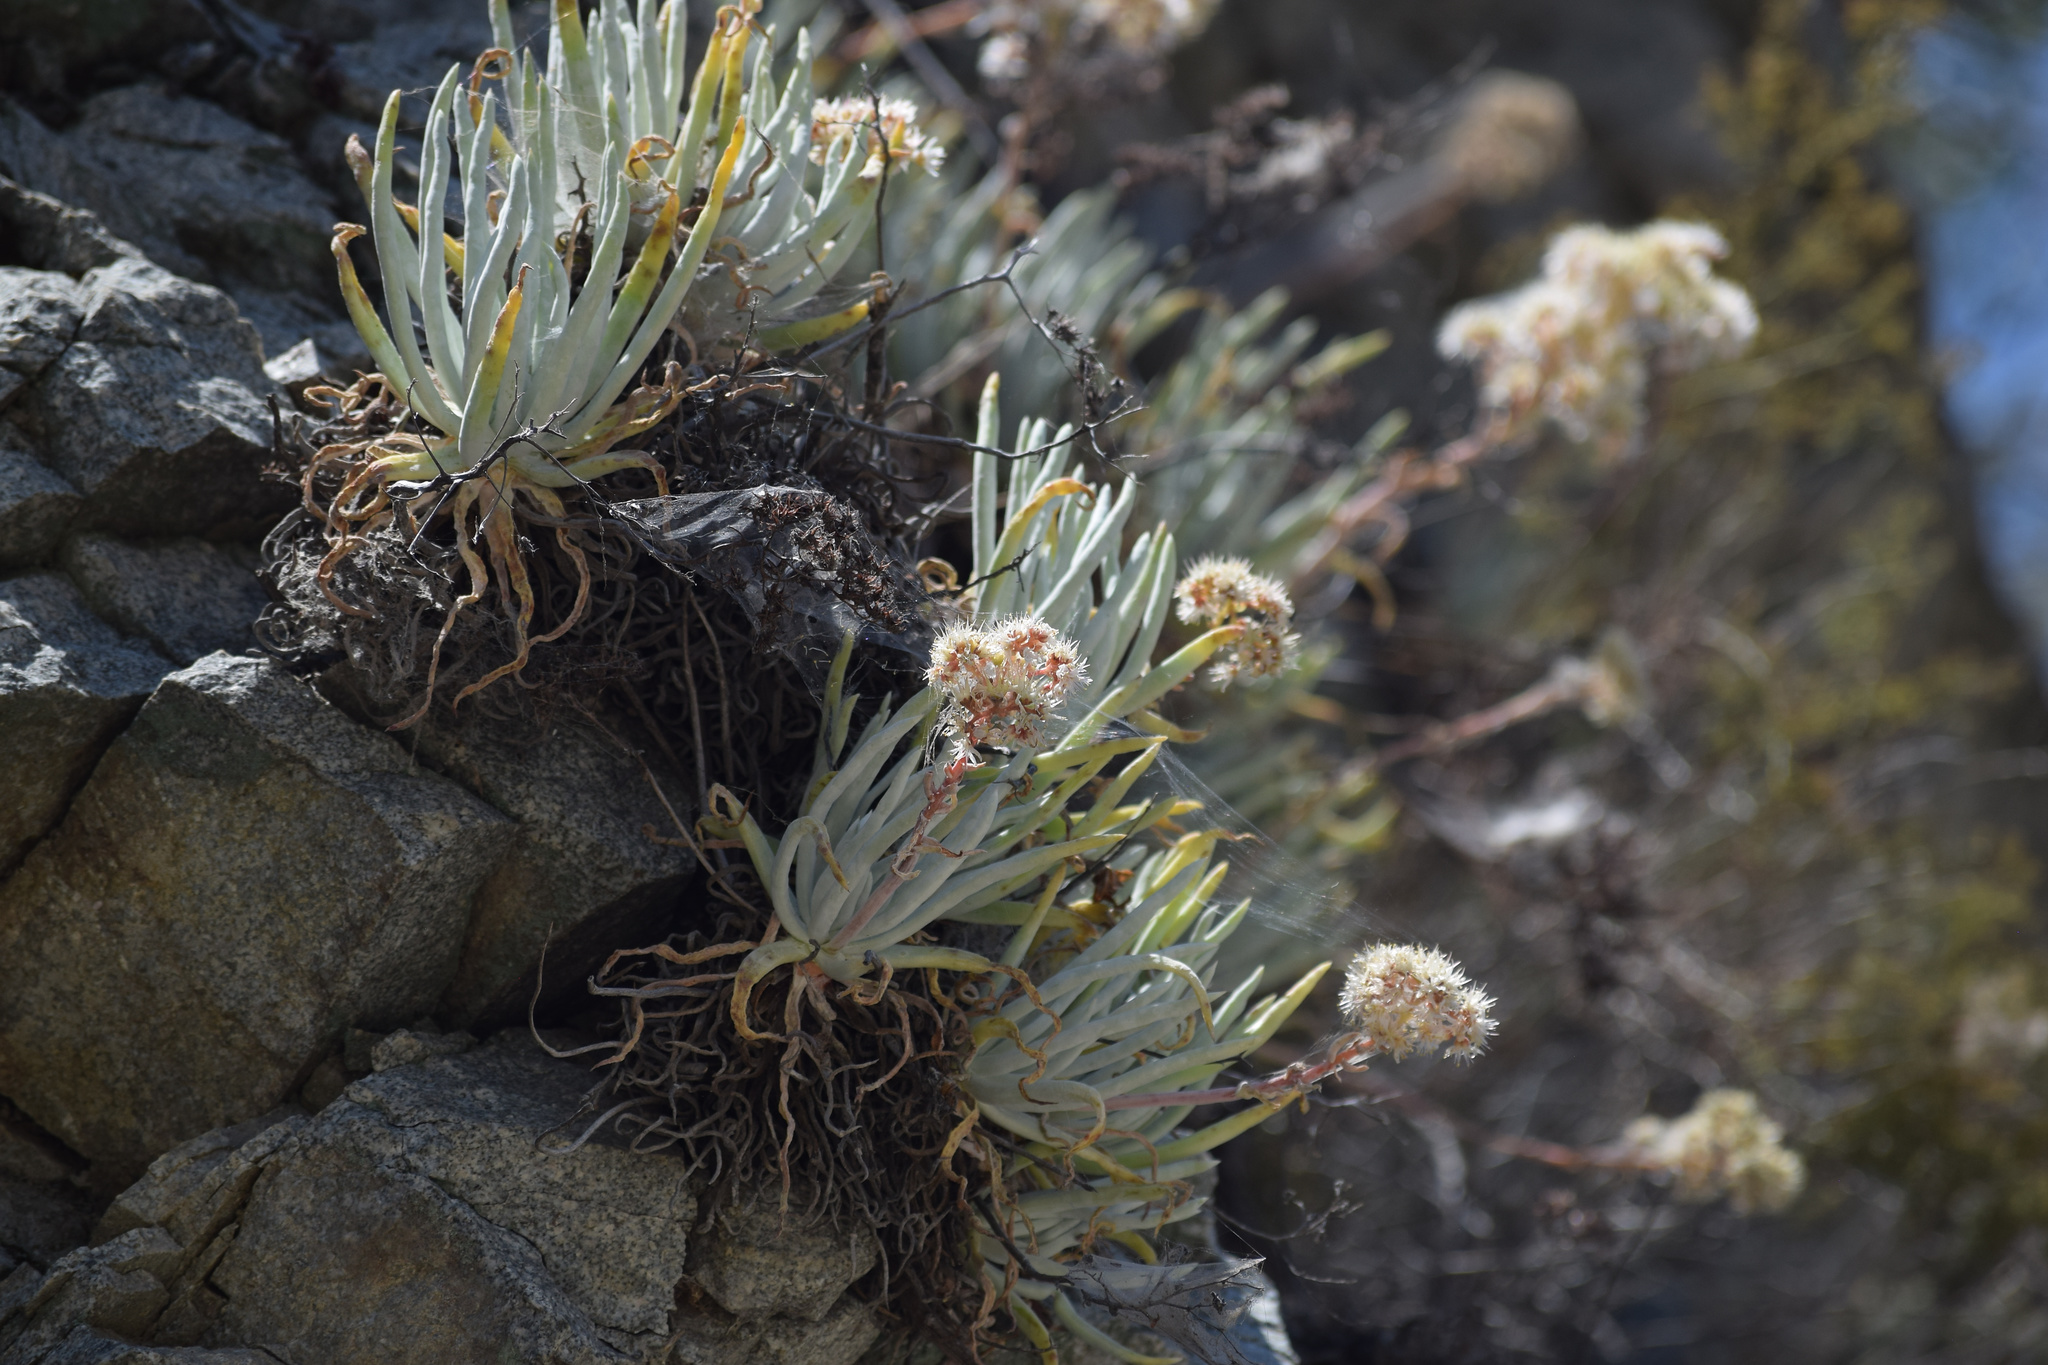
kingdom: Plantae
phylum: Tracheophyta
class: Magnoliopsida
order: Saxifragales
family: Crassulaceae
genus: Dudleya
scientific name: Dudleya densiflora
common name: San gabriel mountains dudleya
